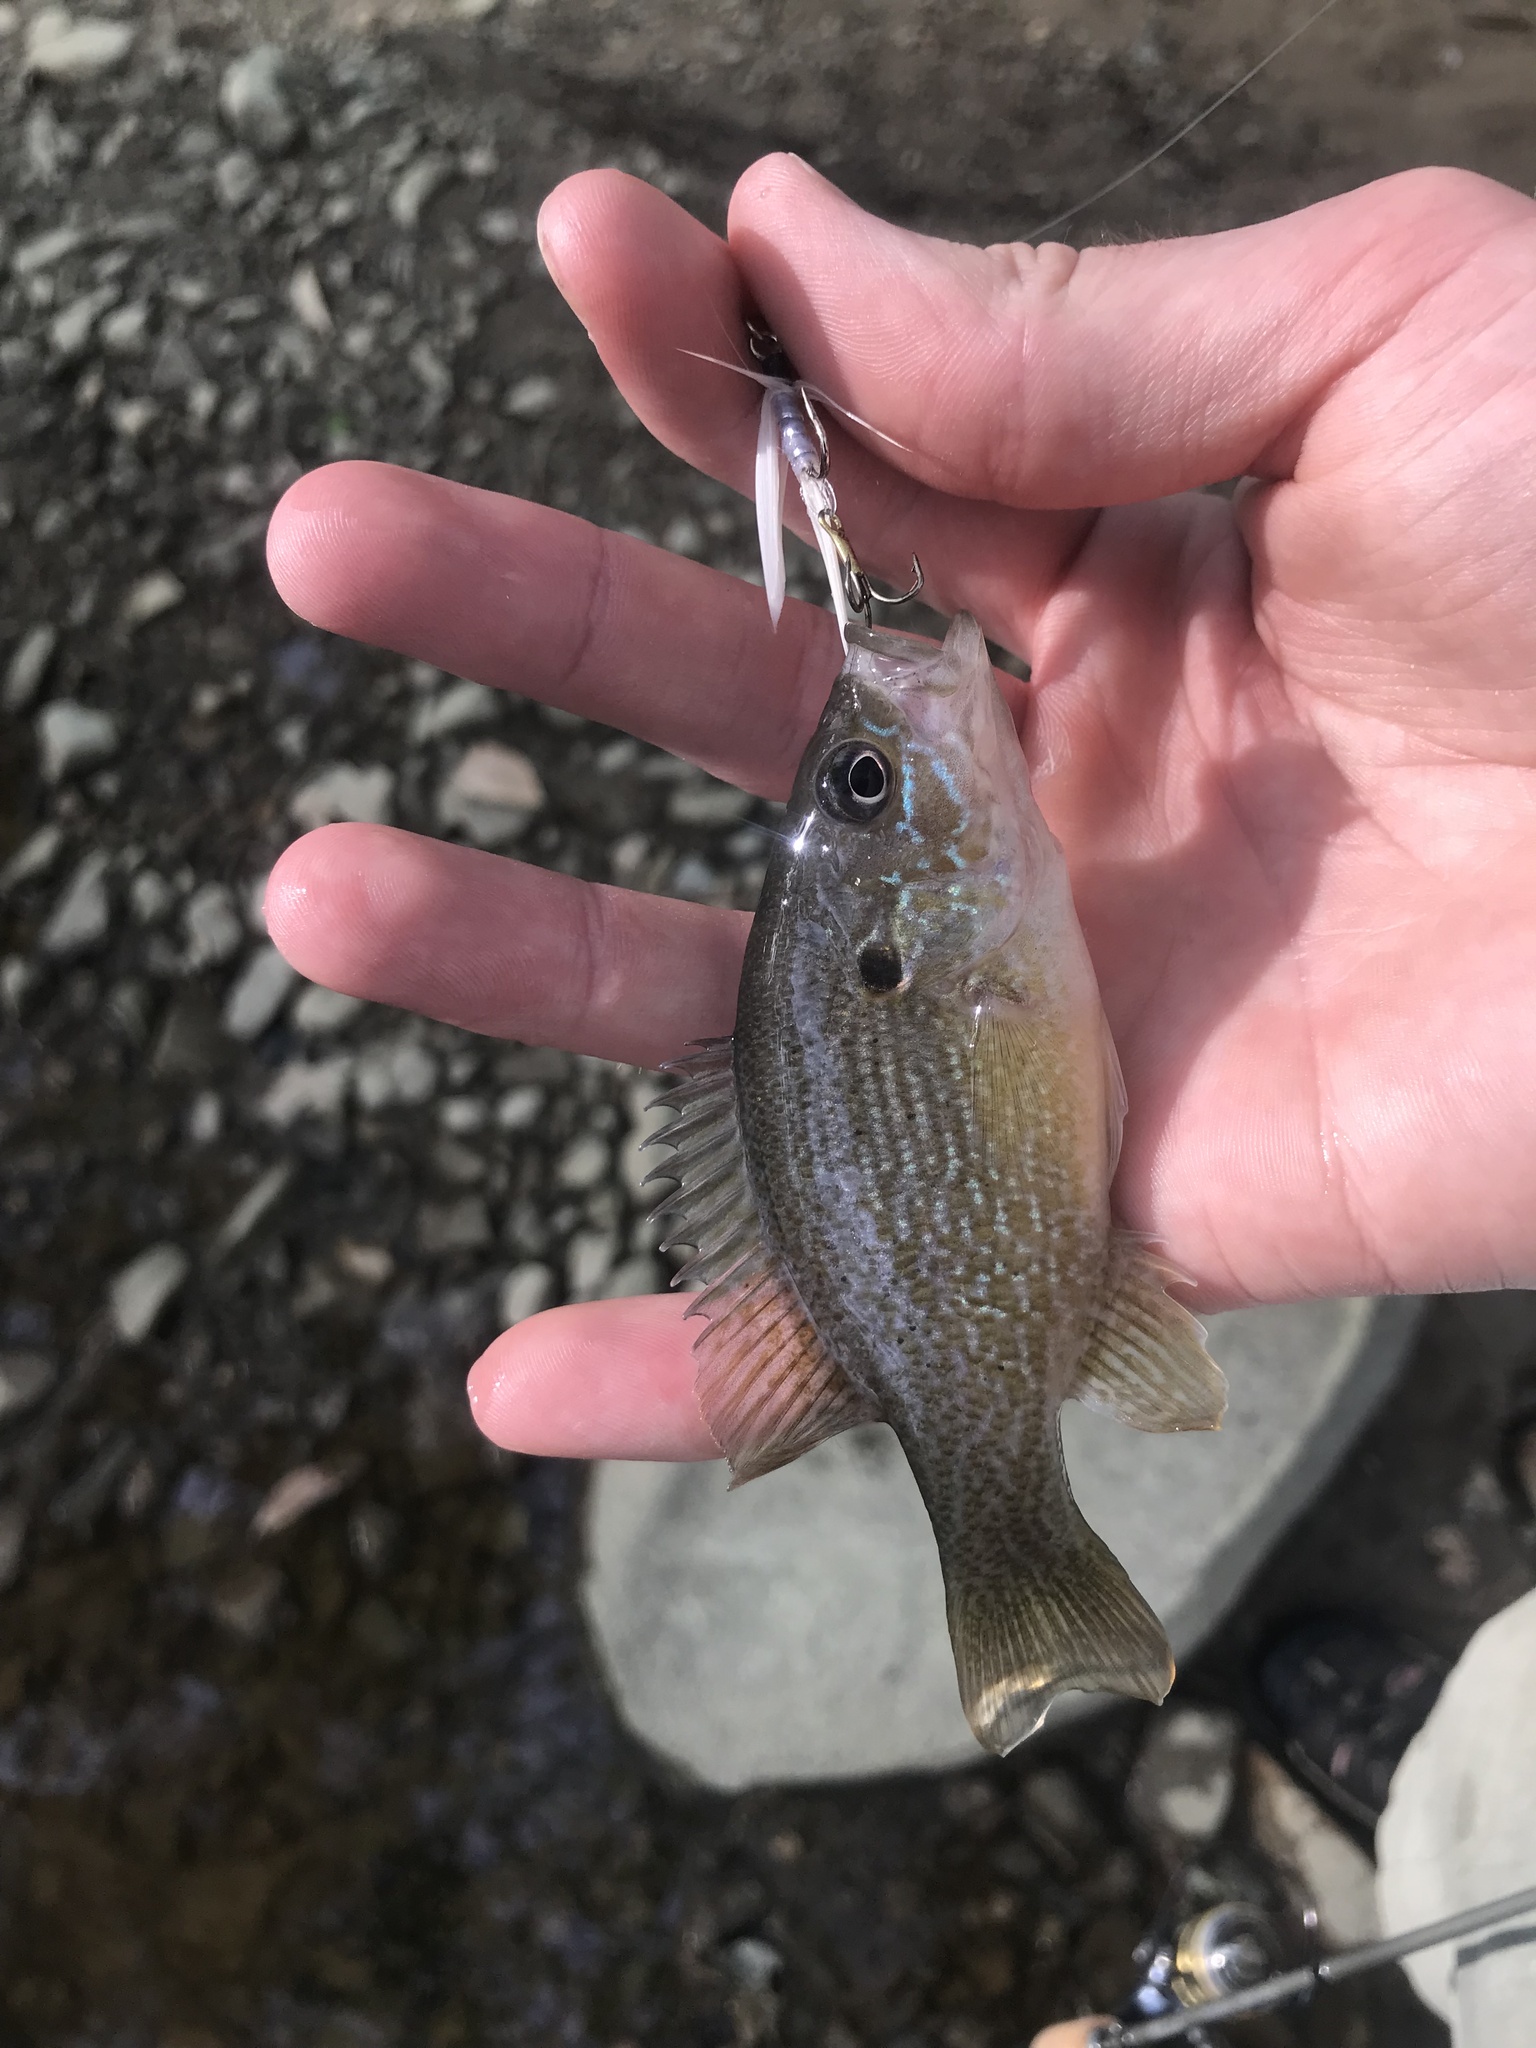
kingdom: Animalia
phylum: Chordata
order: Perciformes
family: Centrarchidae
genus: Lepomis
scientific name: Lepomis cyanellus
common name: Green sunfish
